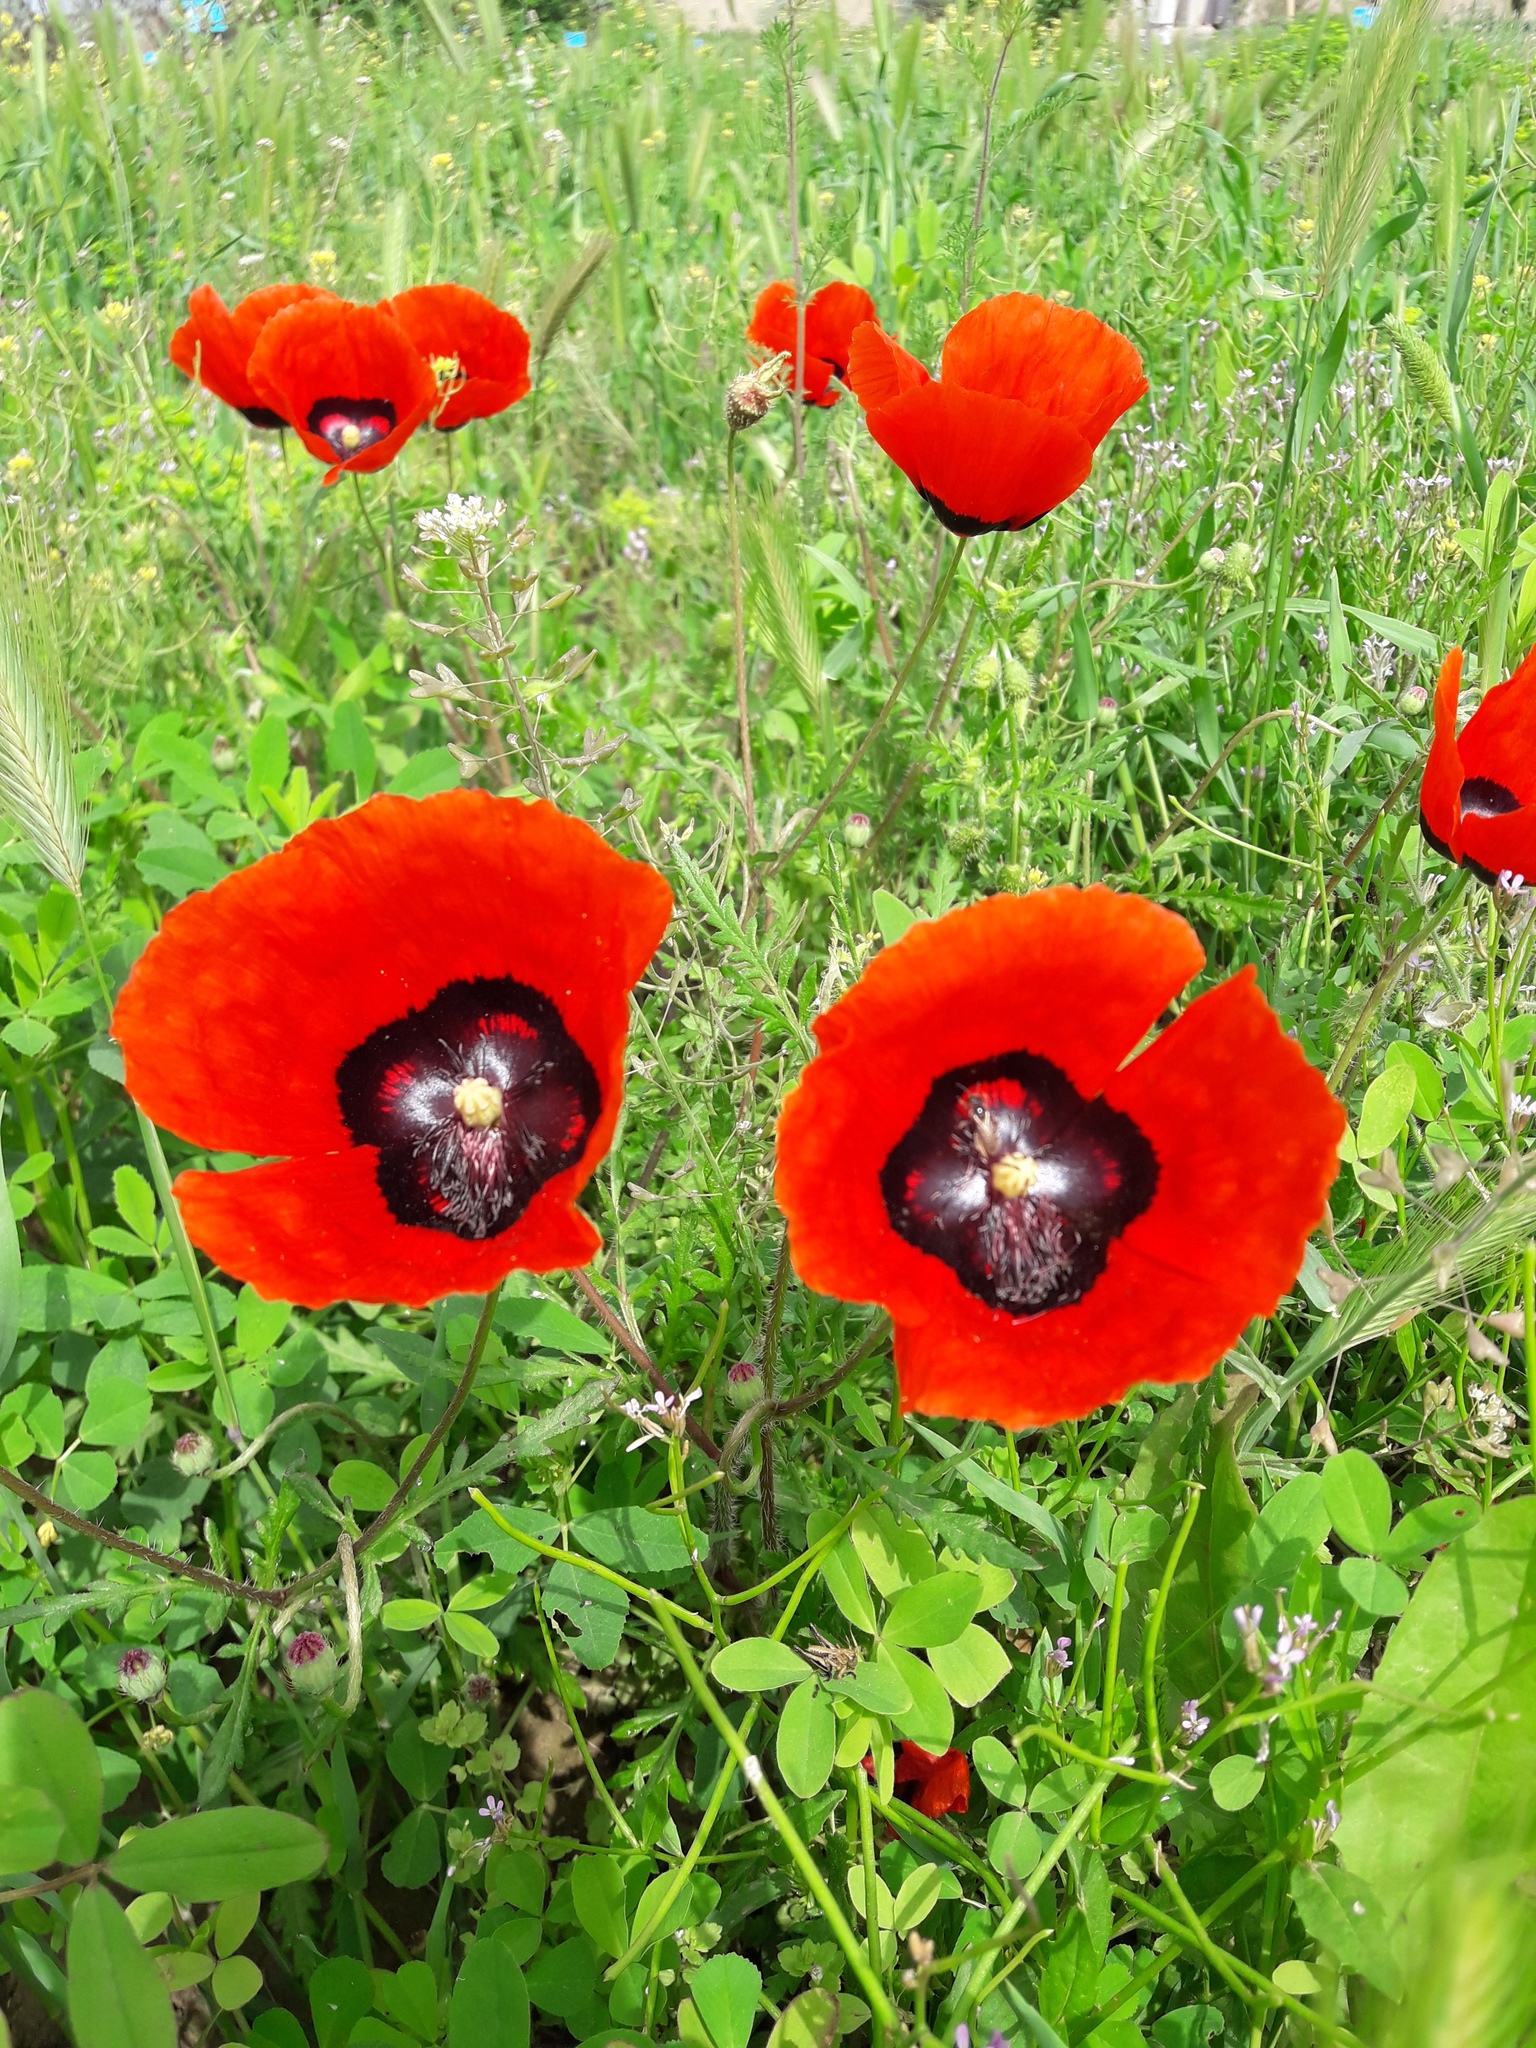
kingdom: Plantae
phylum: Tracheophyta
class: Magnoliopsida
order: Ranunculales
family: Papaveraceae
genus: Roemeria
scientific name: Roemeria pavonina
